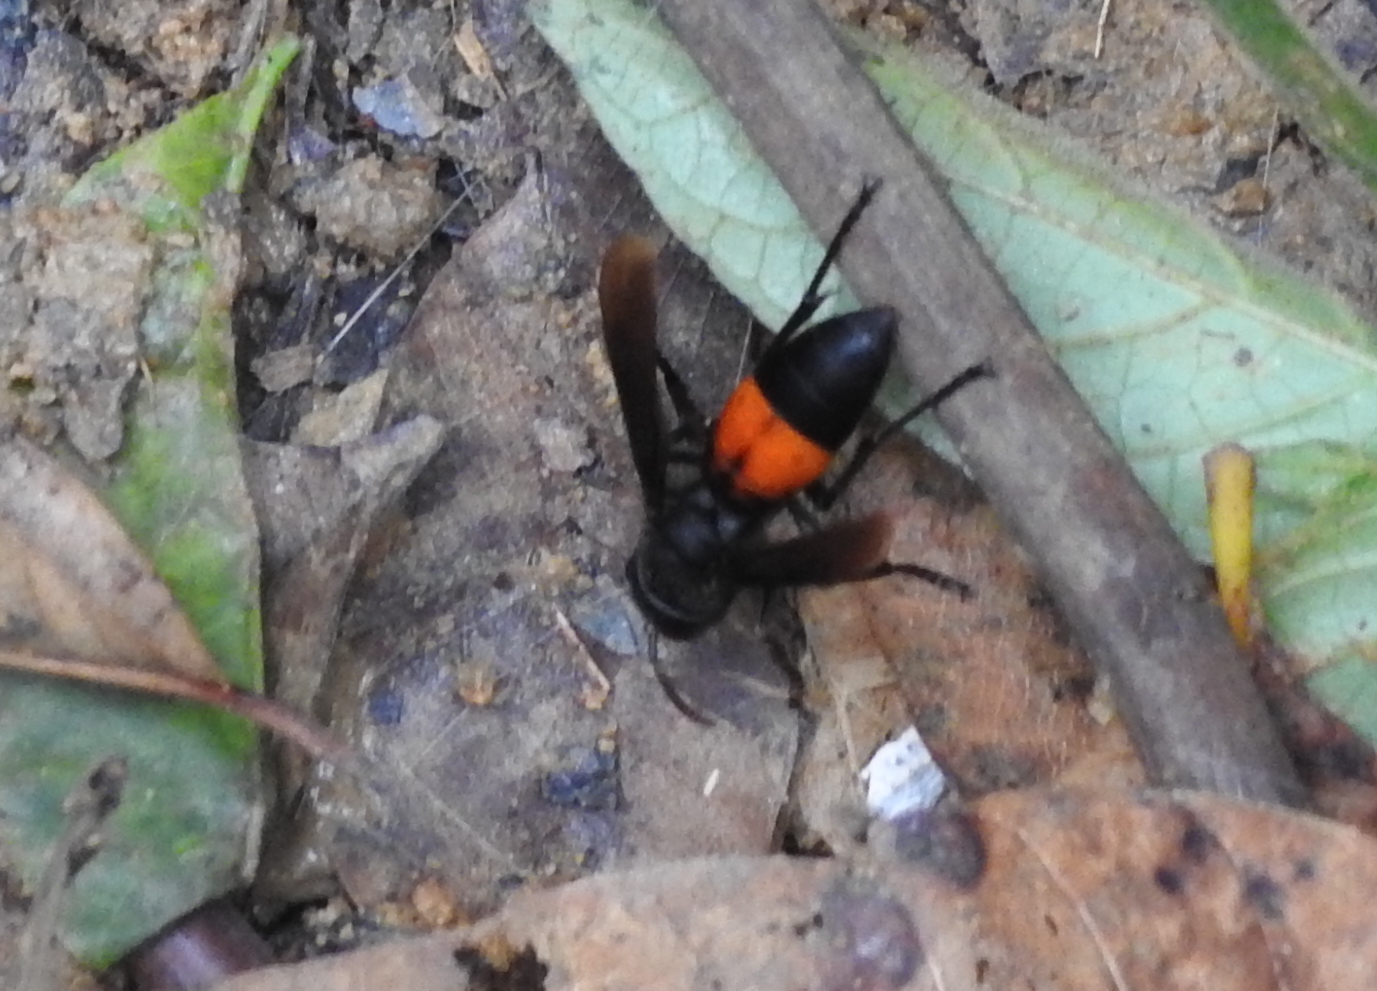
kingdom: Animalia
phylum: Arthropoda
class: Insecta
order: Hymenoptera
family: Vespidae
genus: Vespa
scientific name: Vespa affinis
